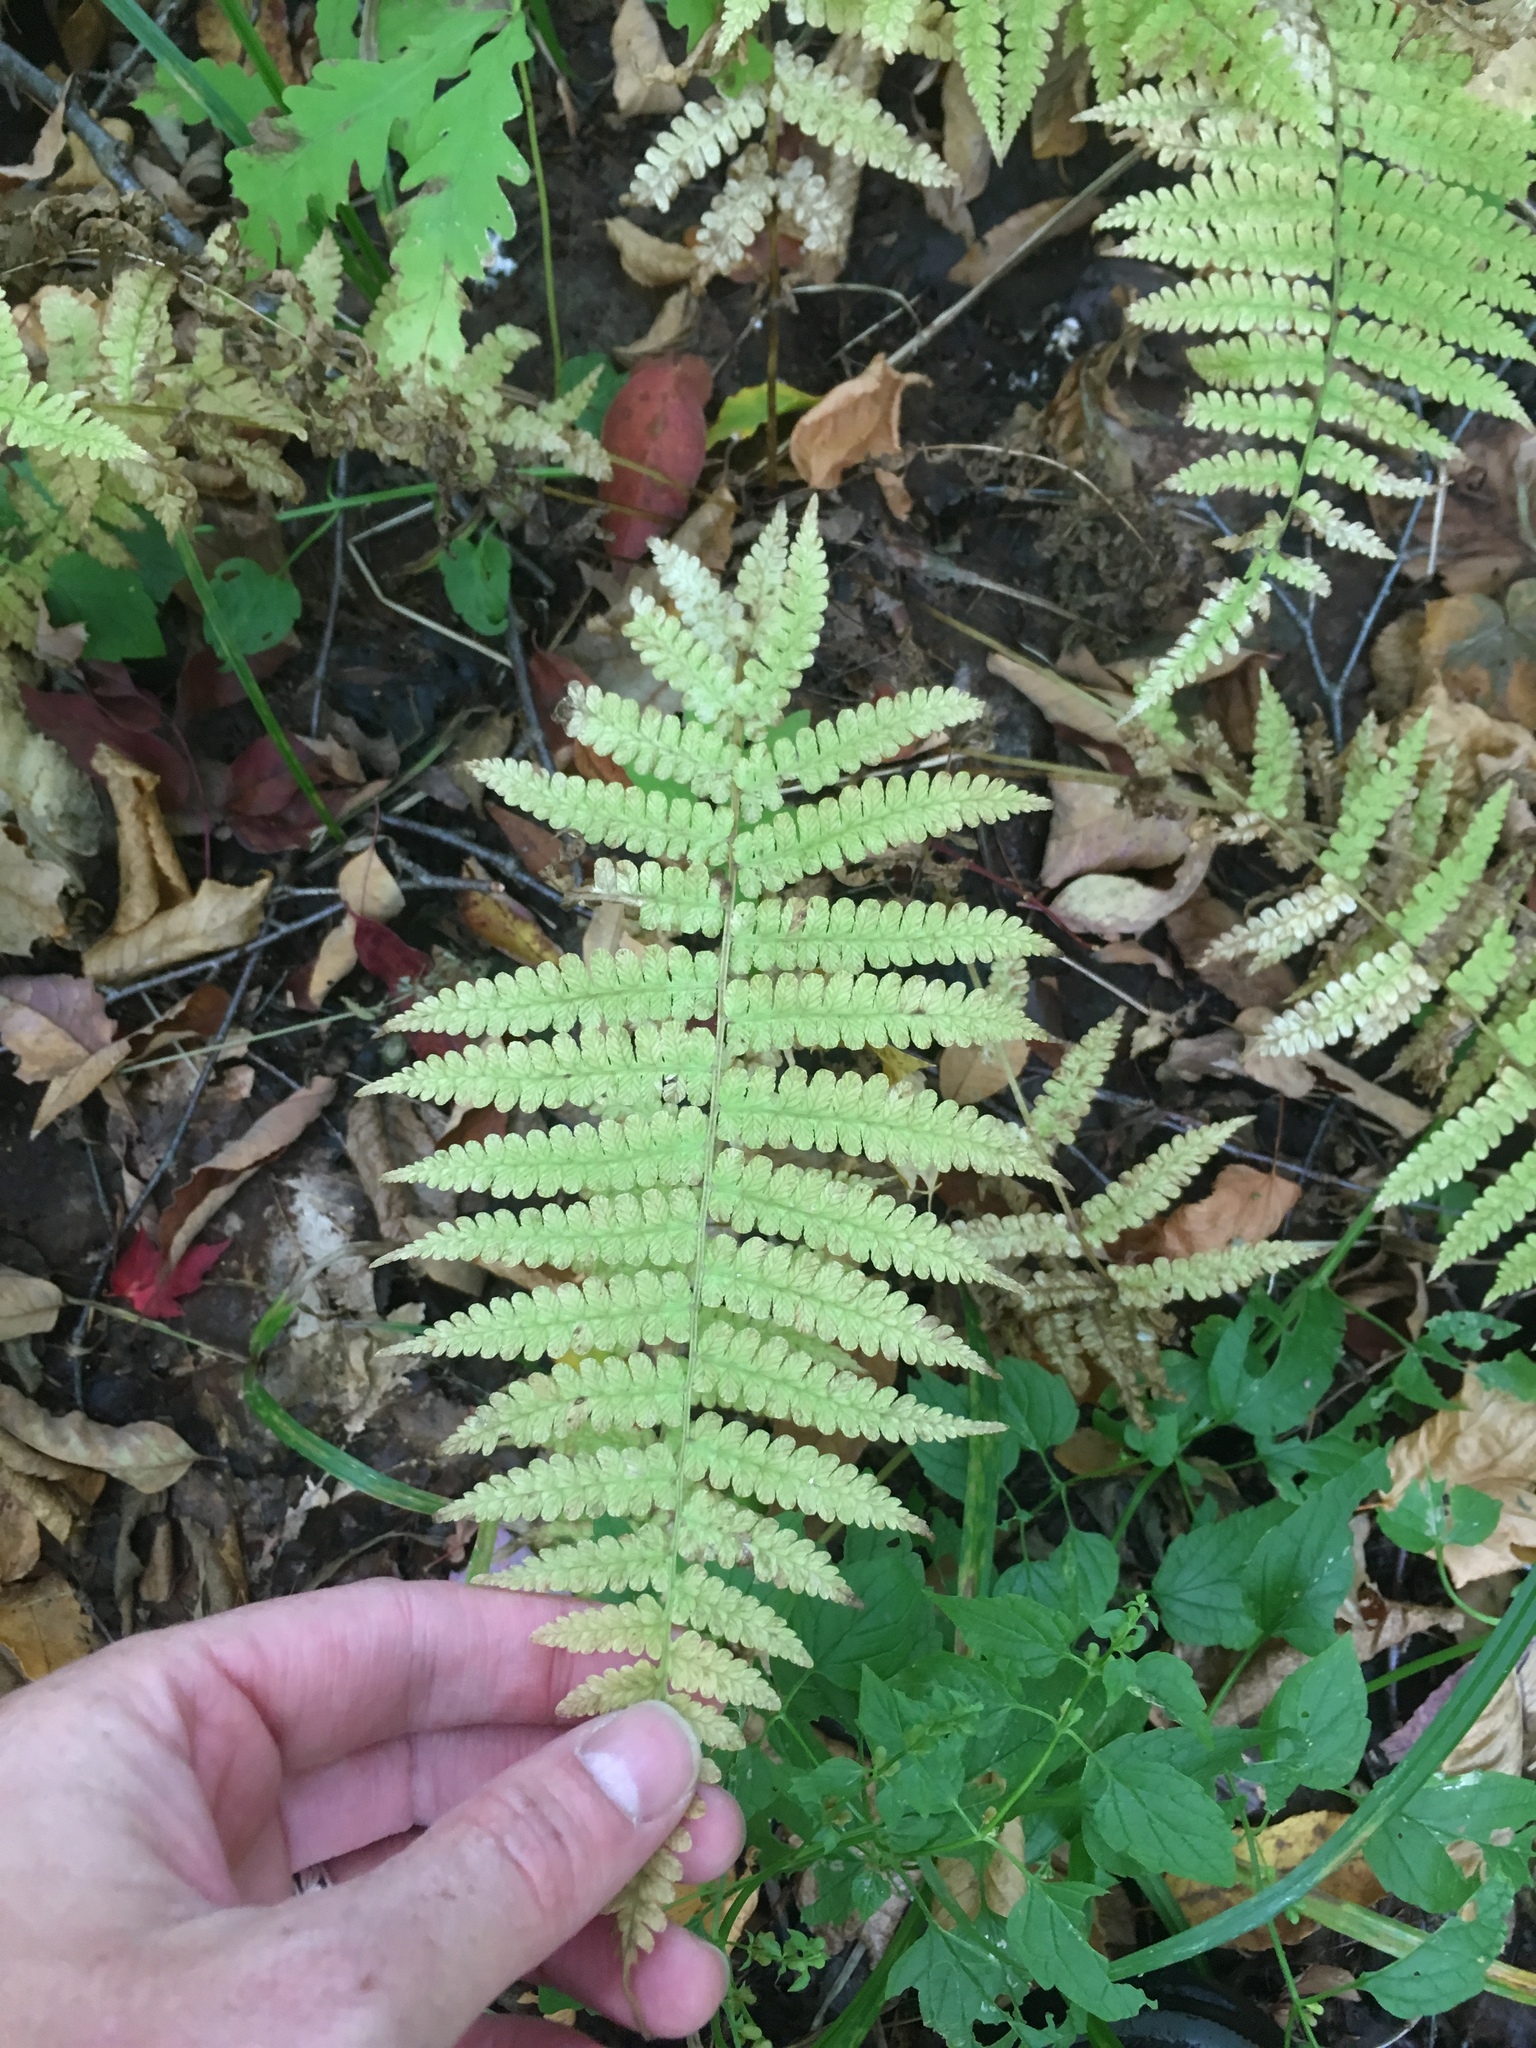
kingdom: Plantae
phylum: Tracheophyta
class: Polypodiopsida
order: Polypodiales
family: Thelypteridaceae
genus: Amauropelta
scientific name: Amauropelta noveboracensis
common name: New york fern
